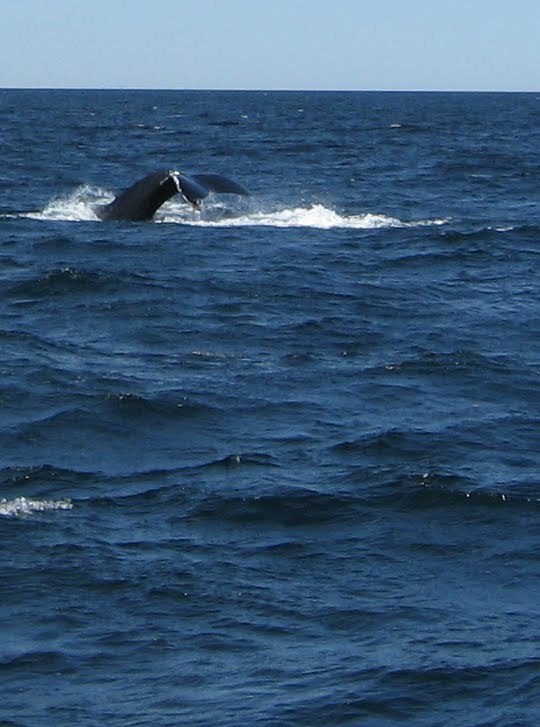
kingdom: Animalia
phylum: Chordata
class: Mammalia
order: Cetacea
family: Balaenopteridae
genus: Megaptera
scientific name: Megaptera novaeangliae
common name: Humpback whale
